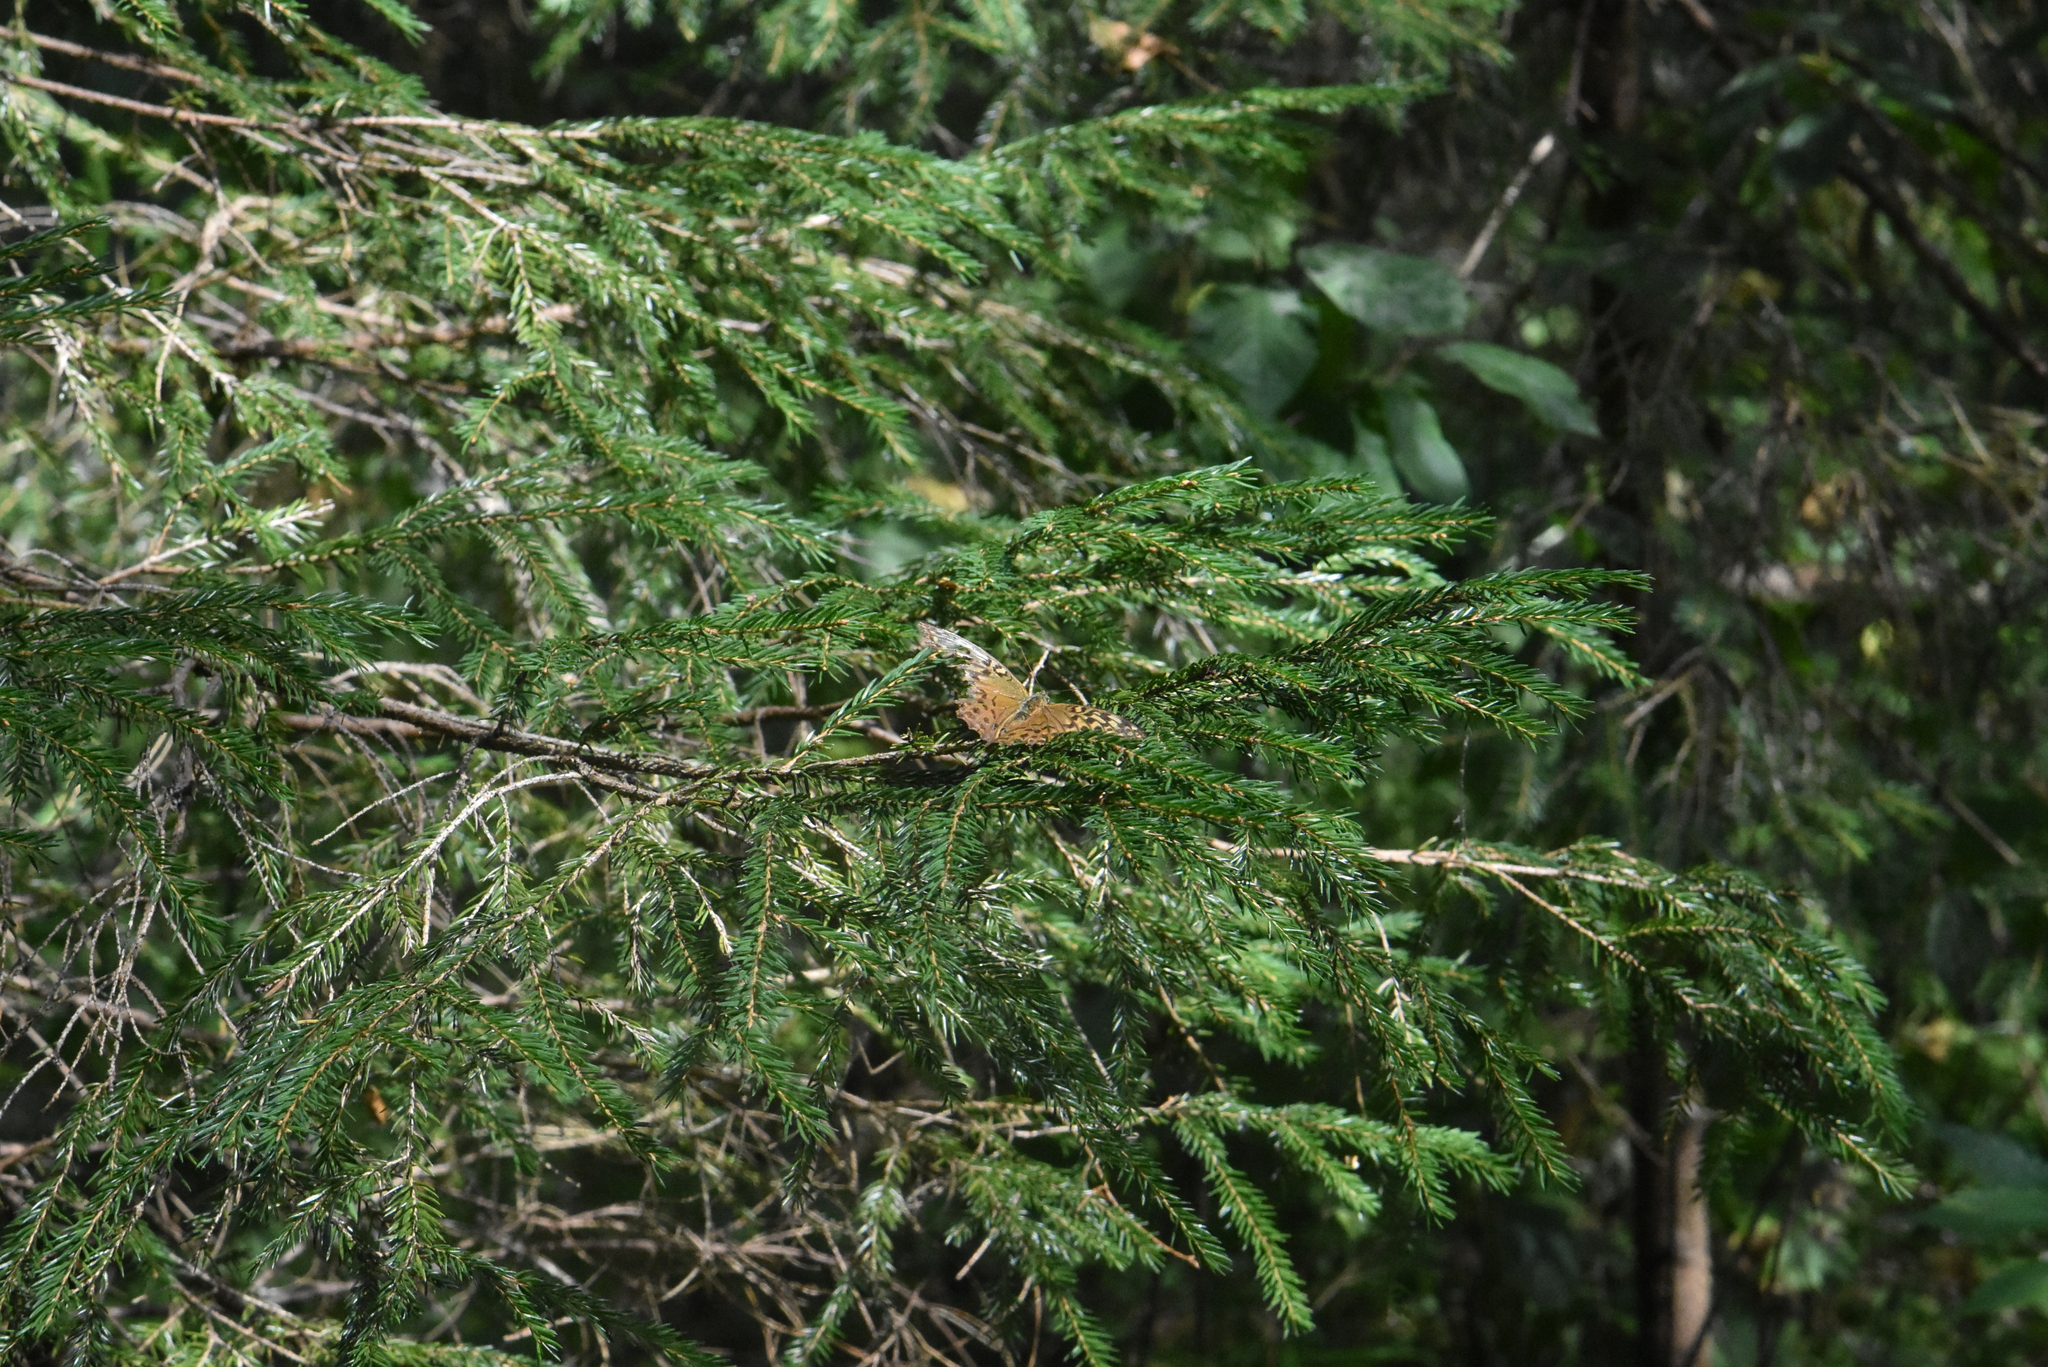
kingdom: Plantae
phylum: Tracheophyta
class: Pinopsida
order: Pinales
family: Pinaceae
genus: Picea
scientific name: Picea abies
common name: Norway spruce
